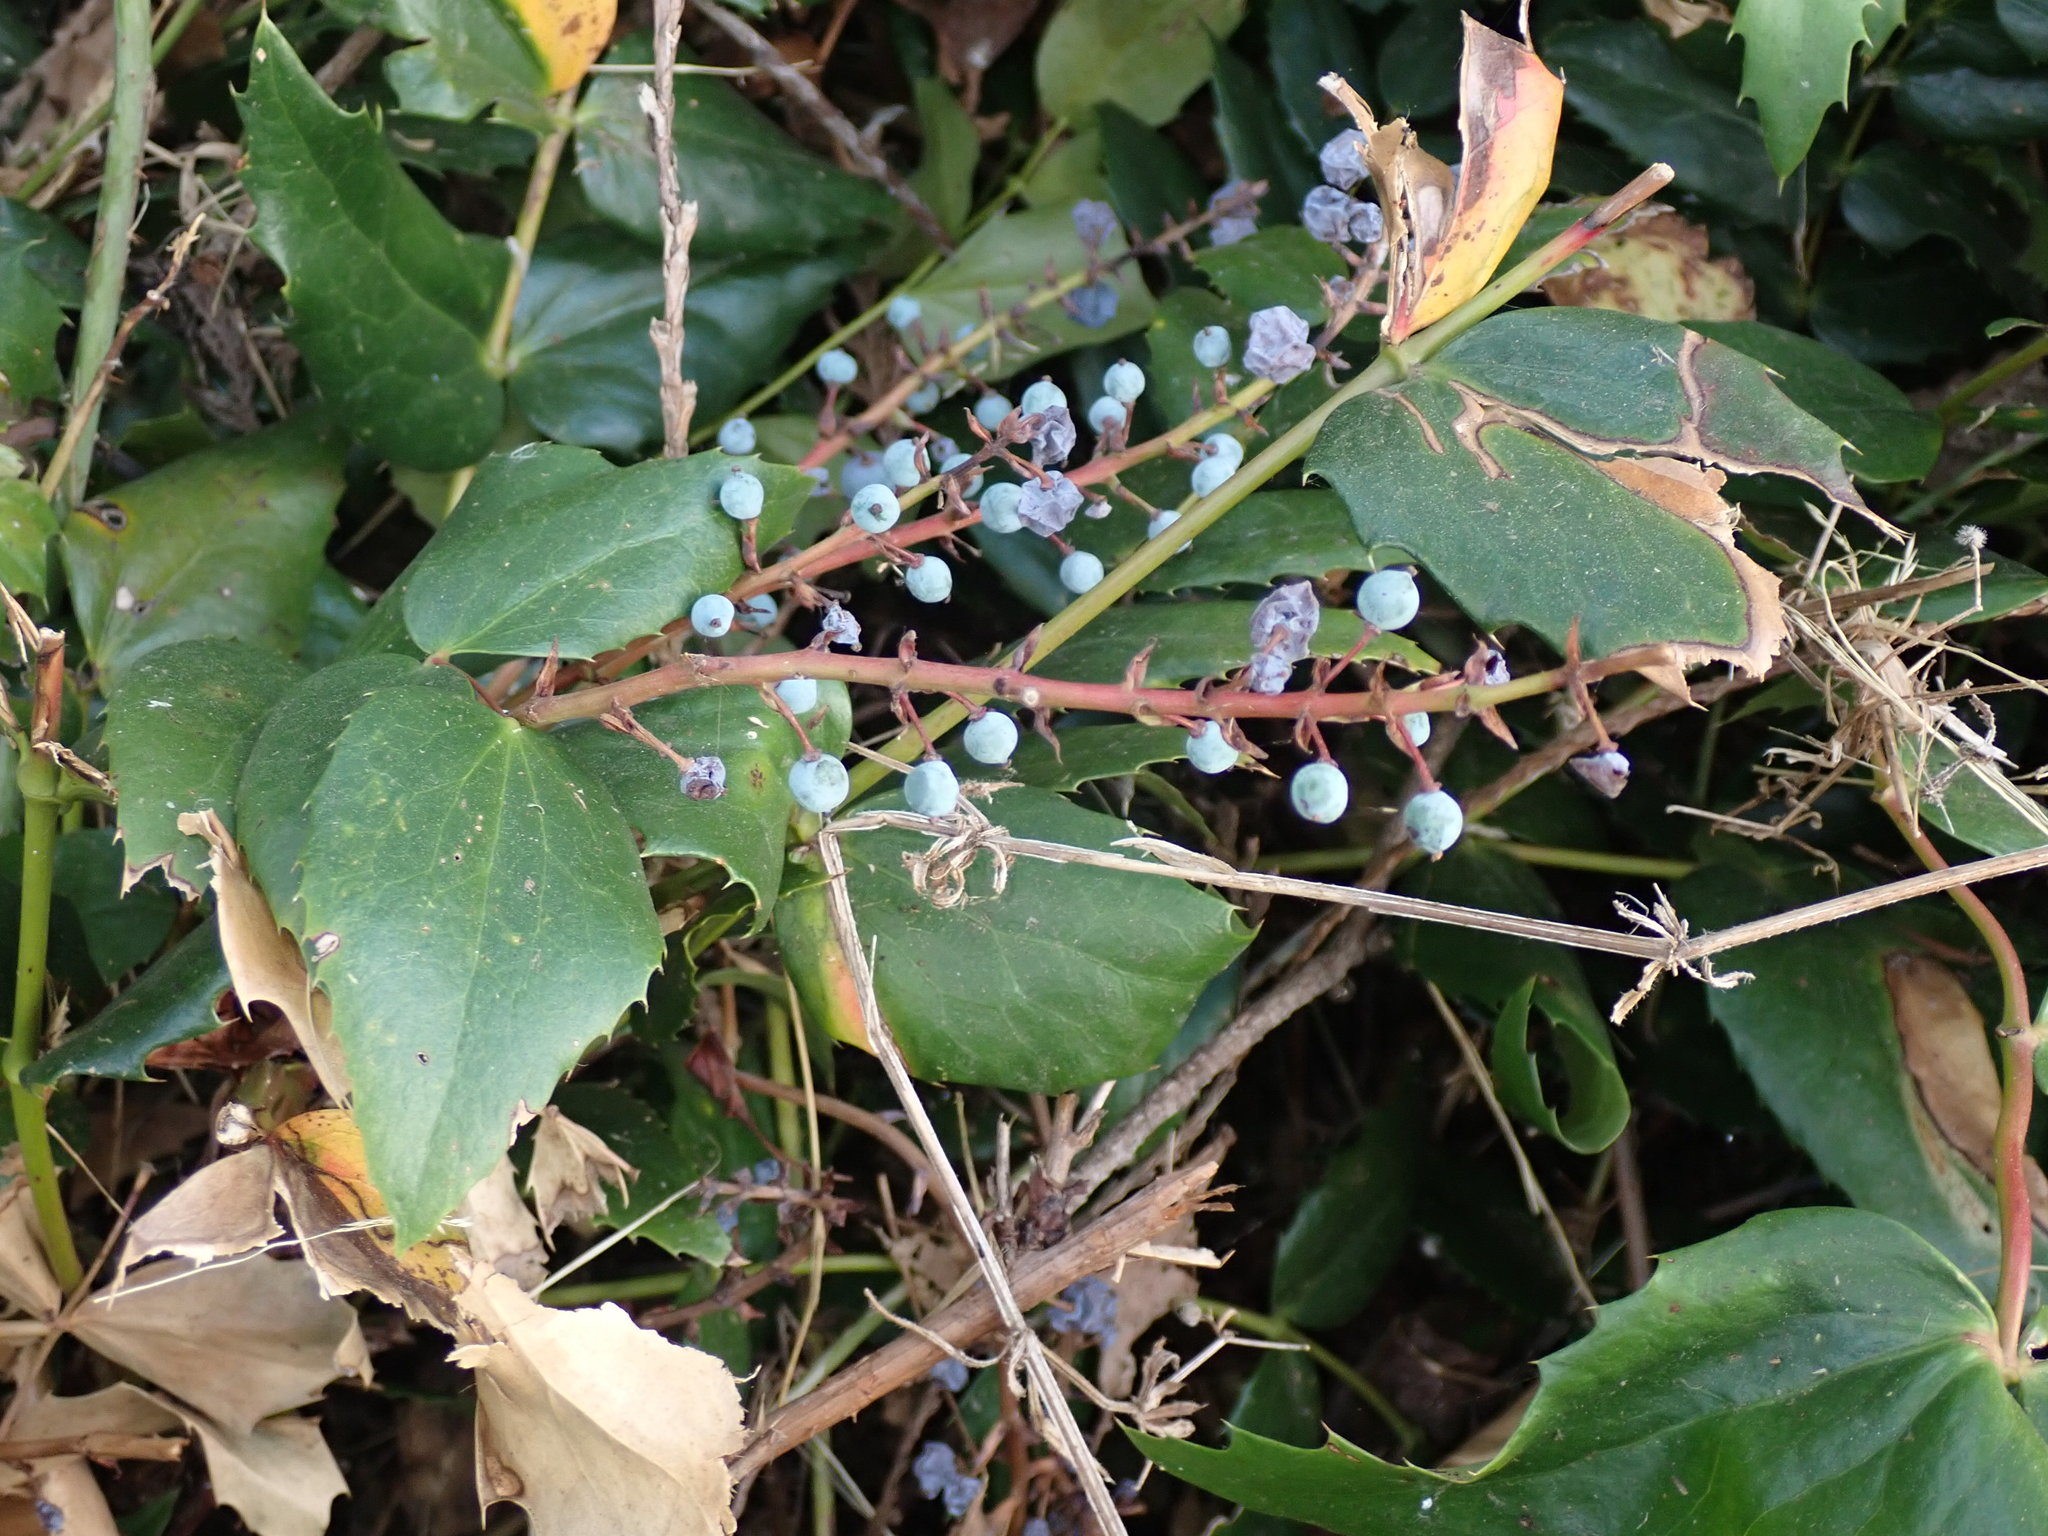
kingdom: Plantae
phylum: Tracheophyta
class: Magnoliopsida
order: Ranunculales
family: Berberidaceae
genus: Mahonia
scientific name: Mahonia nervosa
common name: Cascade oregon-grape
